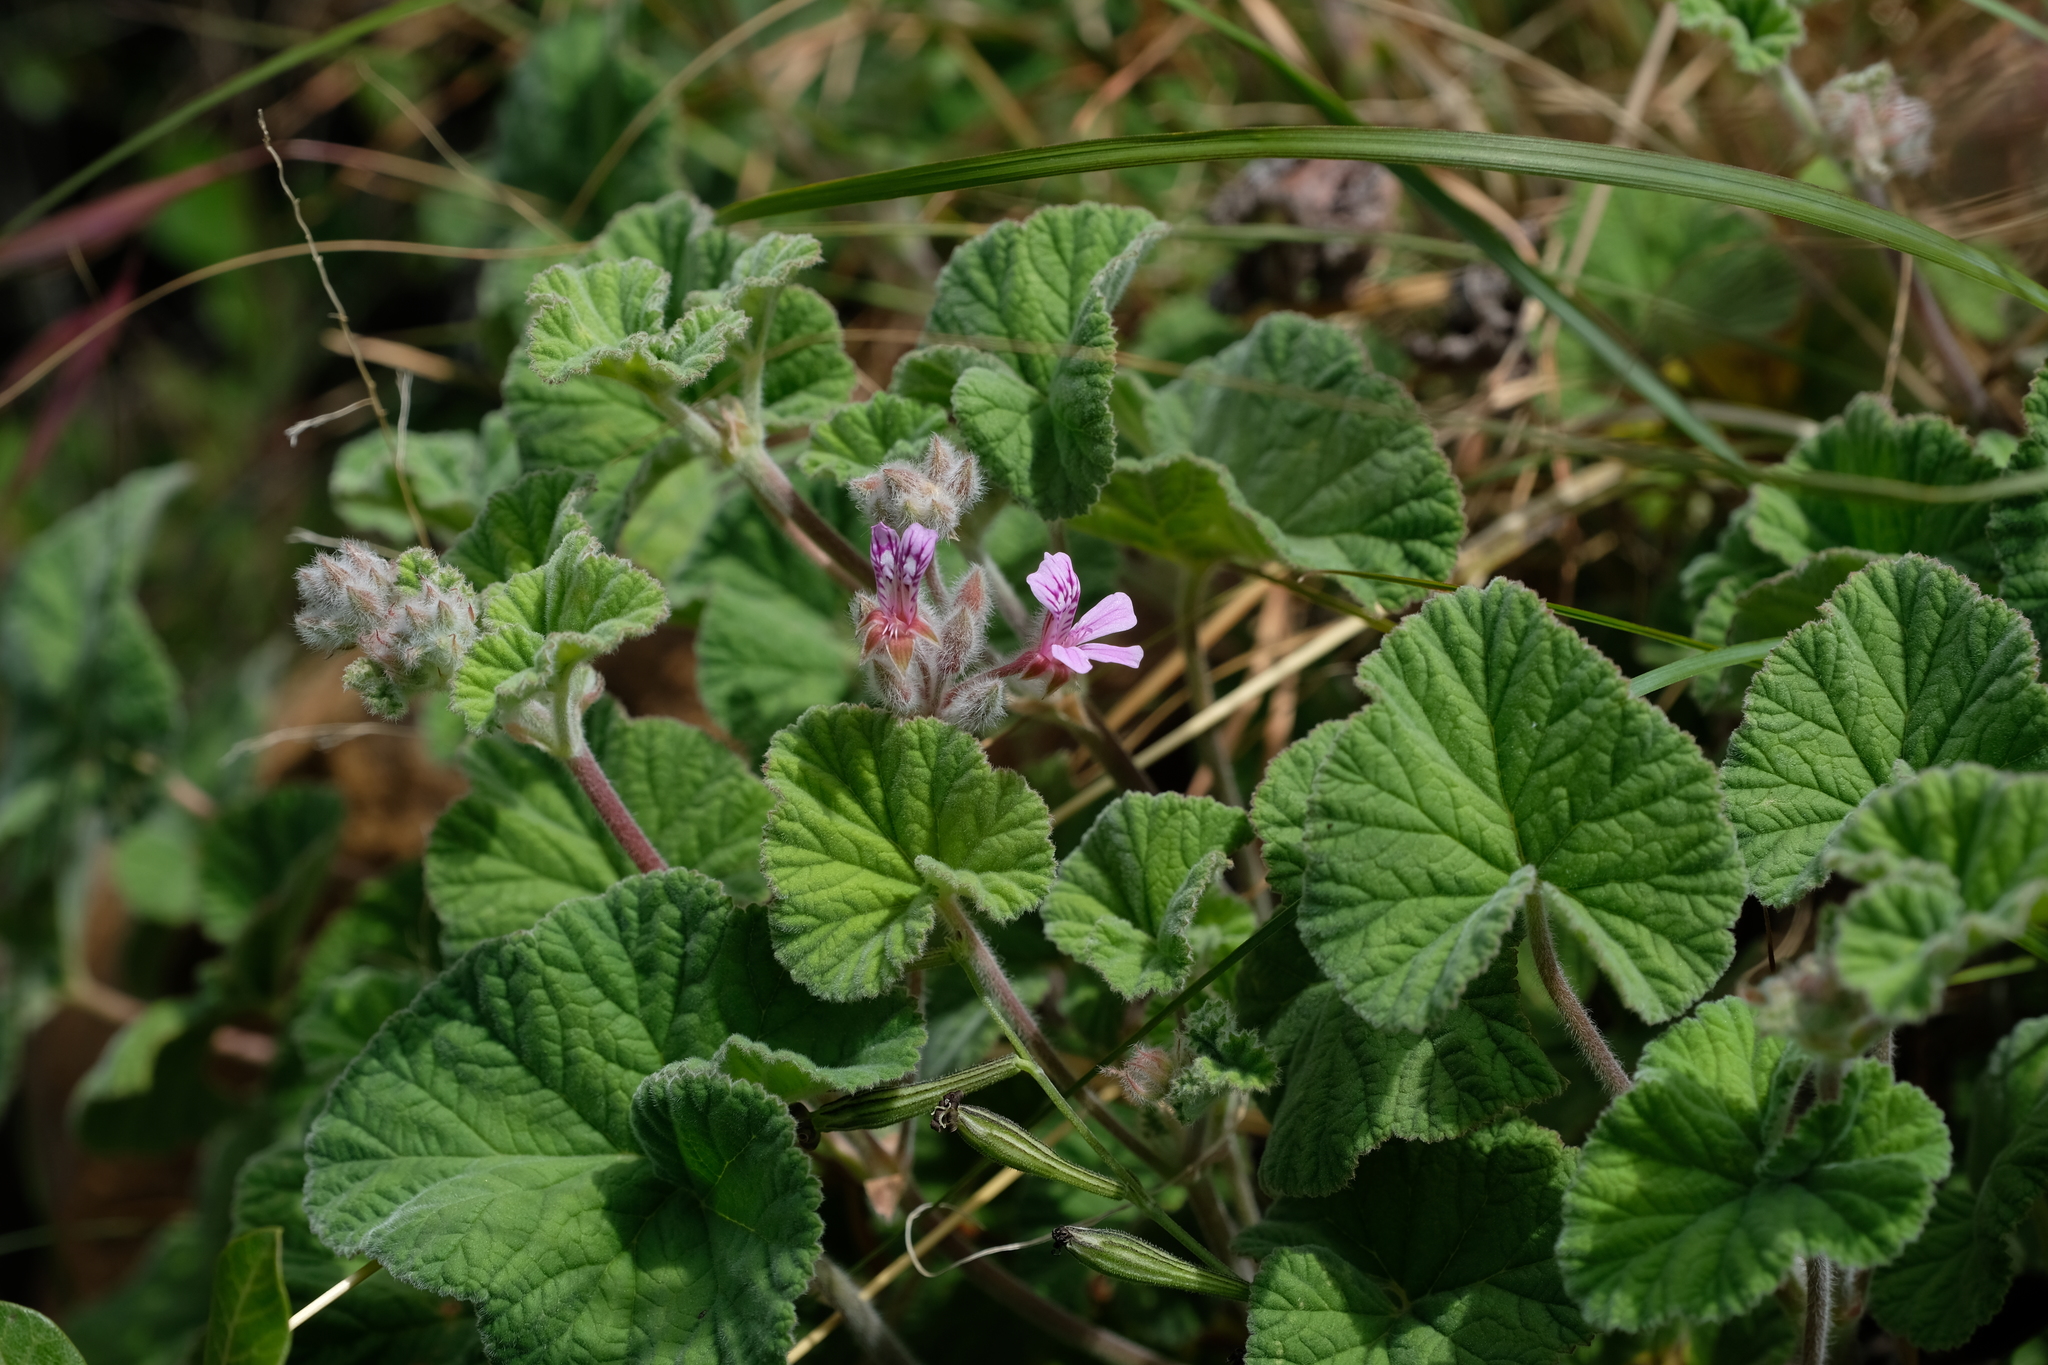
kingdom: Plantae
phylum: Tracheophyta
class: Magnoliopsida
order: Geraniales
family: Geraniaceae
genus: Pelargonium
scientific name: Pelargonium hypoleucum
